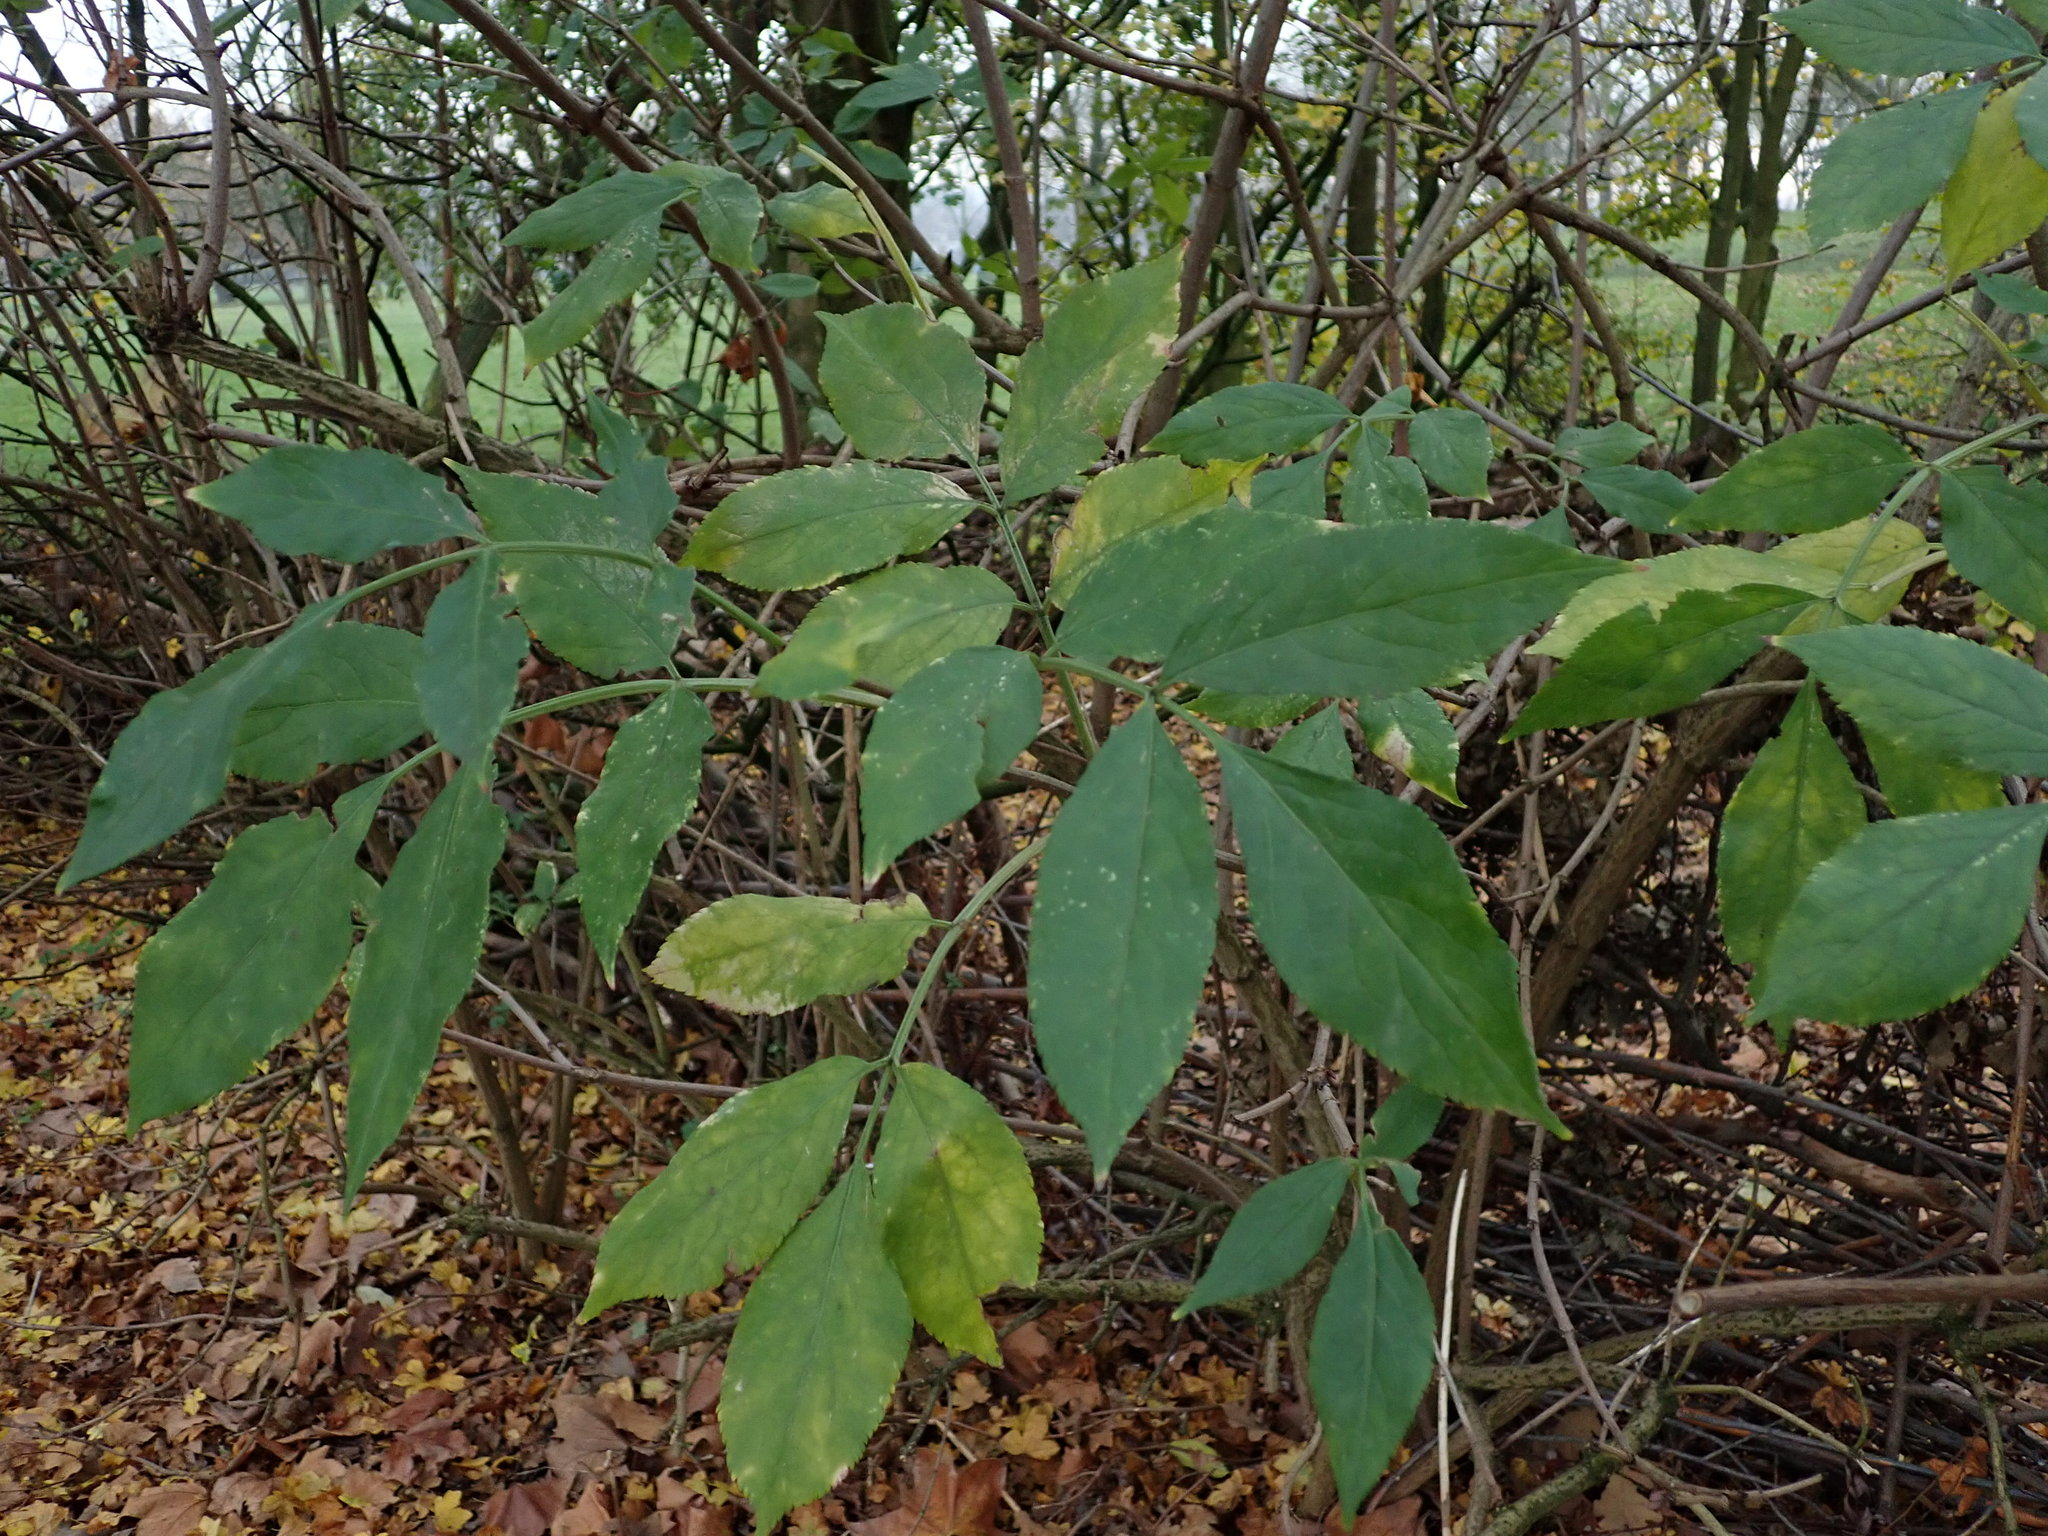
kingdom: Plantae
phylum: Tracheophyta
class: Magnoliopsida
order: Dipsacales
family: Viburnaceae
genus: Sambucus
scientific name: Sambucus nigra
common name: Elder
